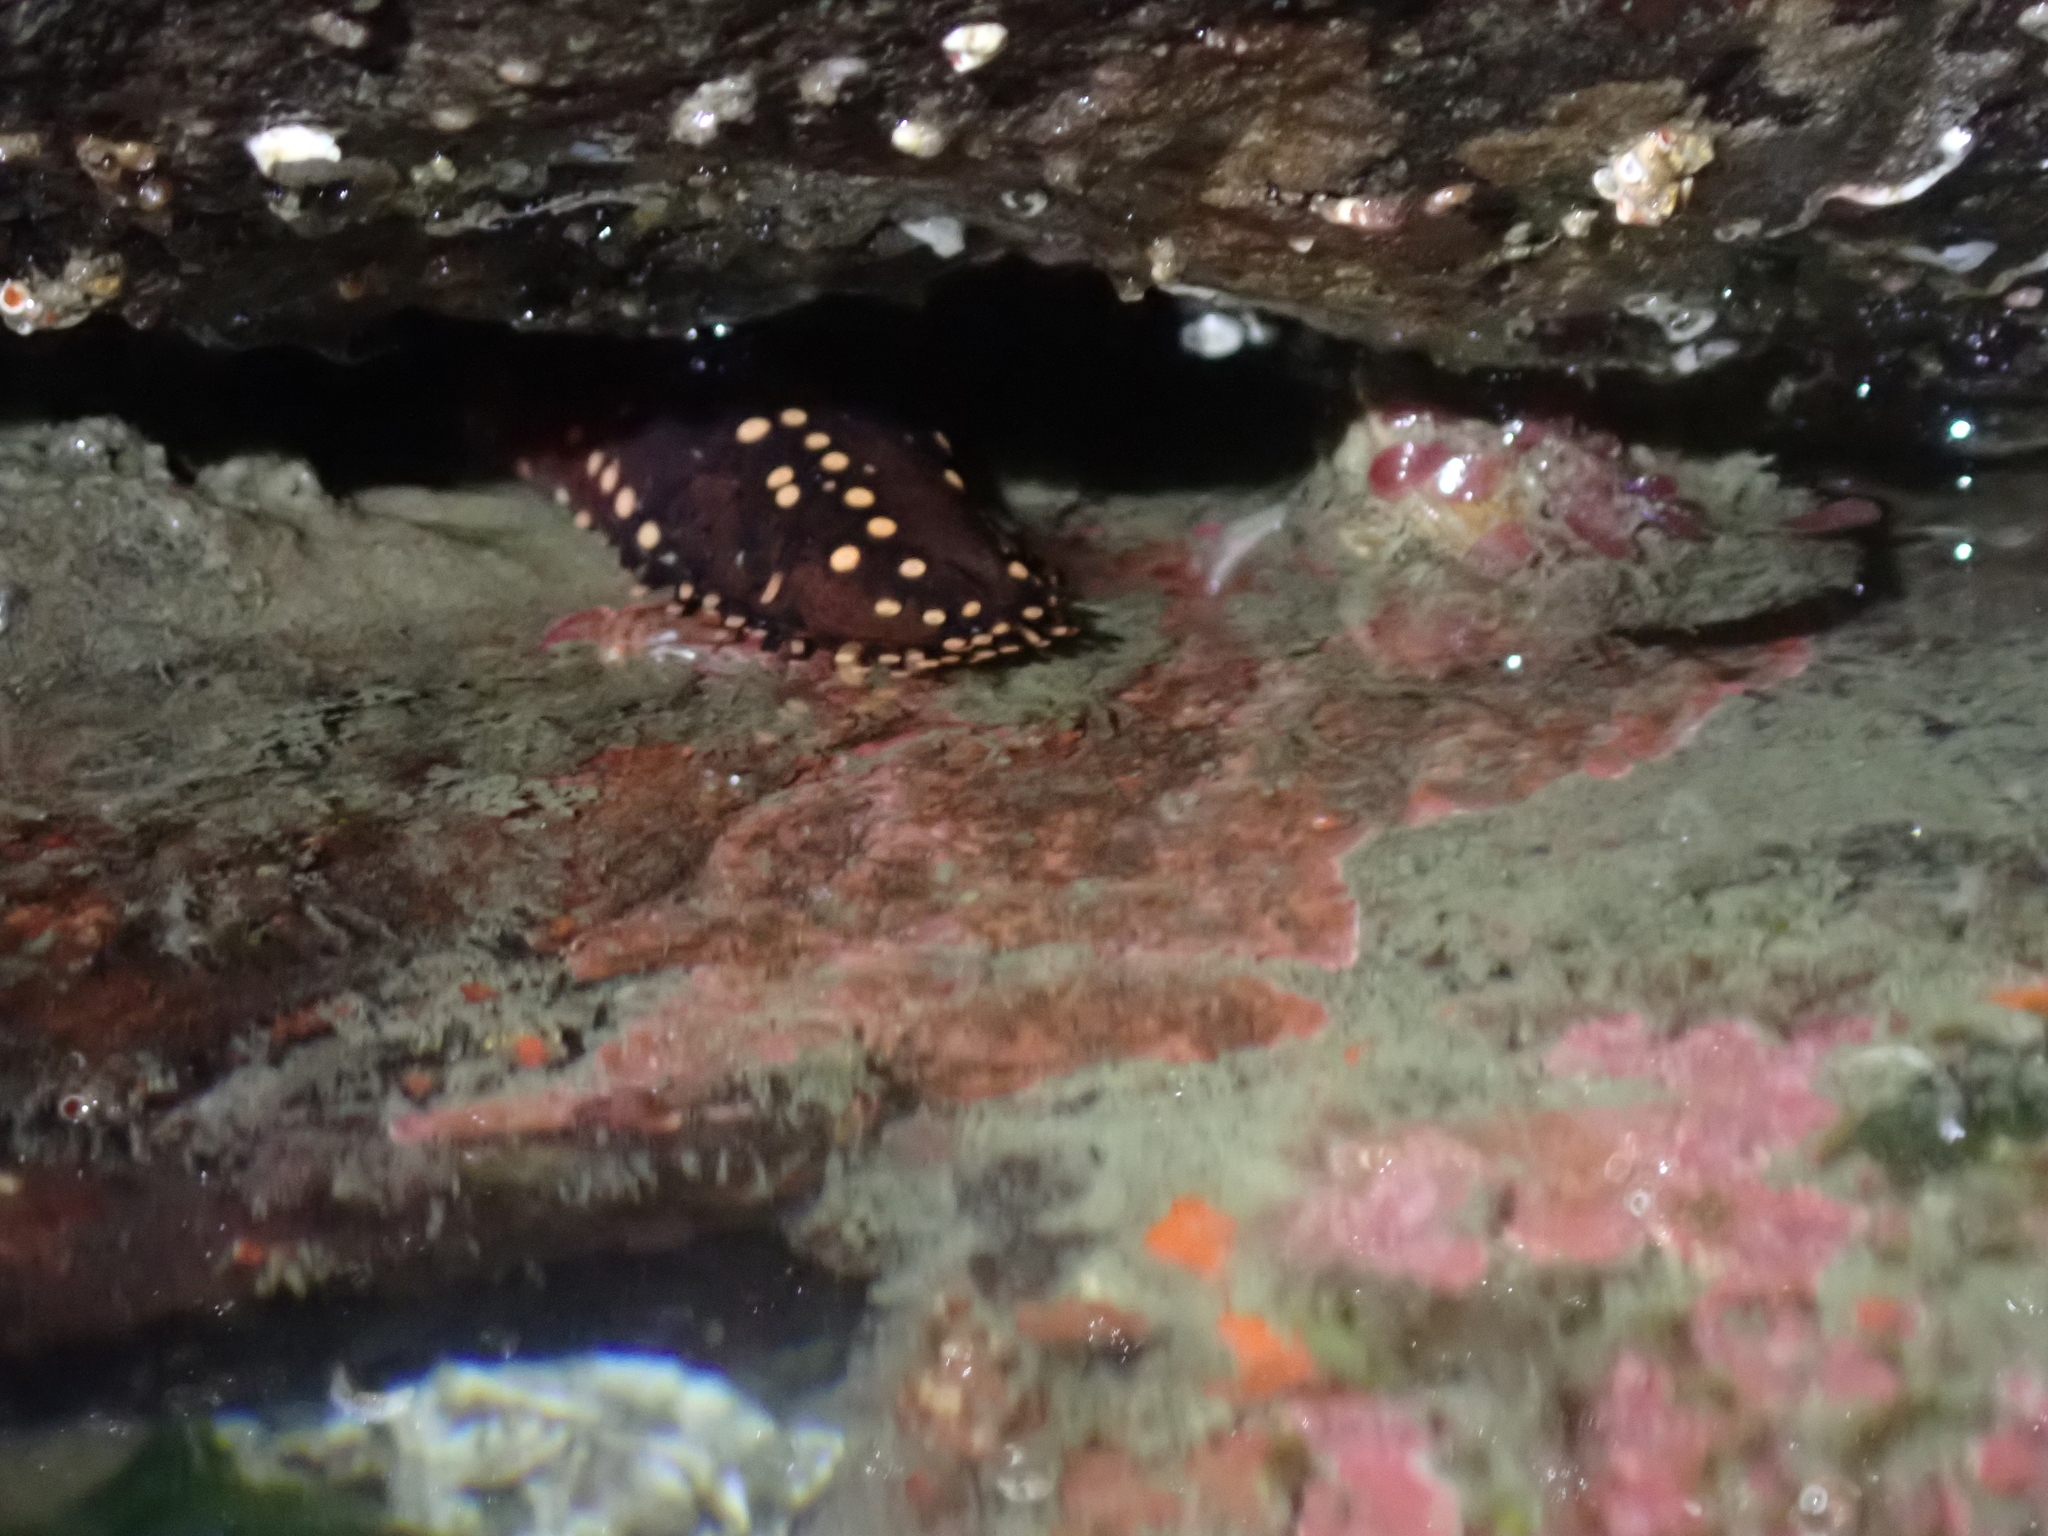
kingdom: Animalia
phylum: Echinodermata
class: Holothuroidea
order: Dendrochirotida
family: Cucumariidae
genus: Cucumaria
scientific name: Cucumaria miniata
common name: Orange sea cucumber
